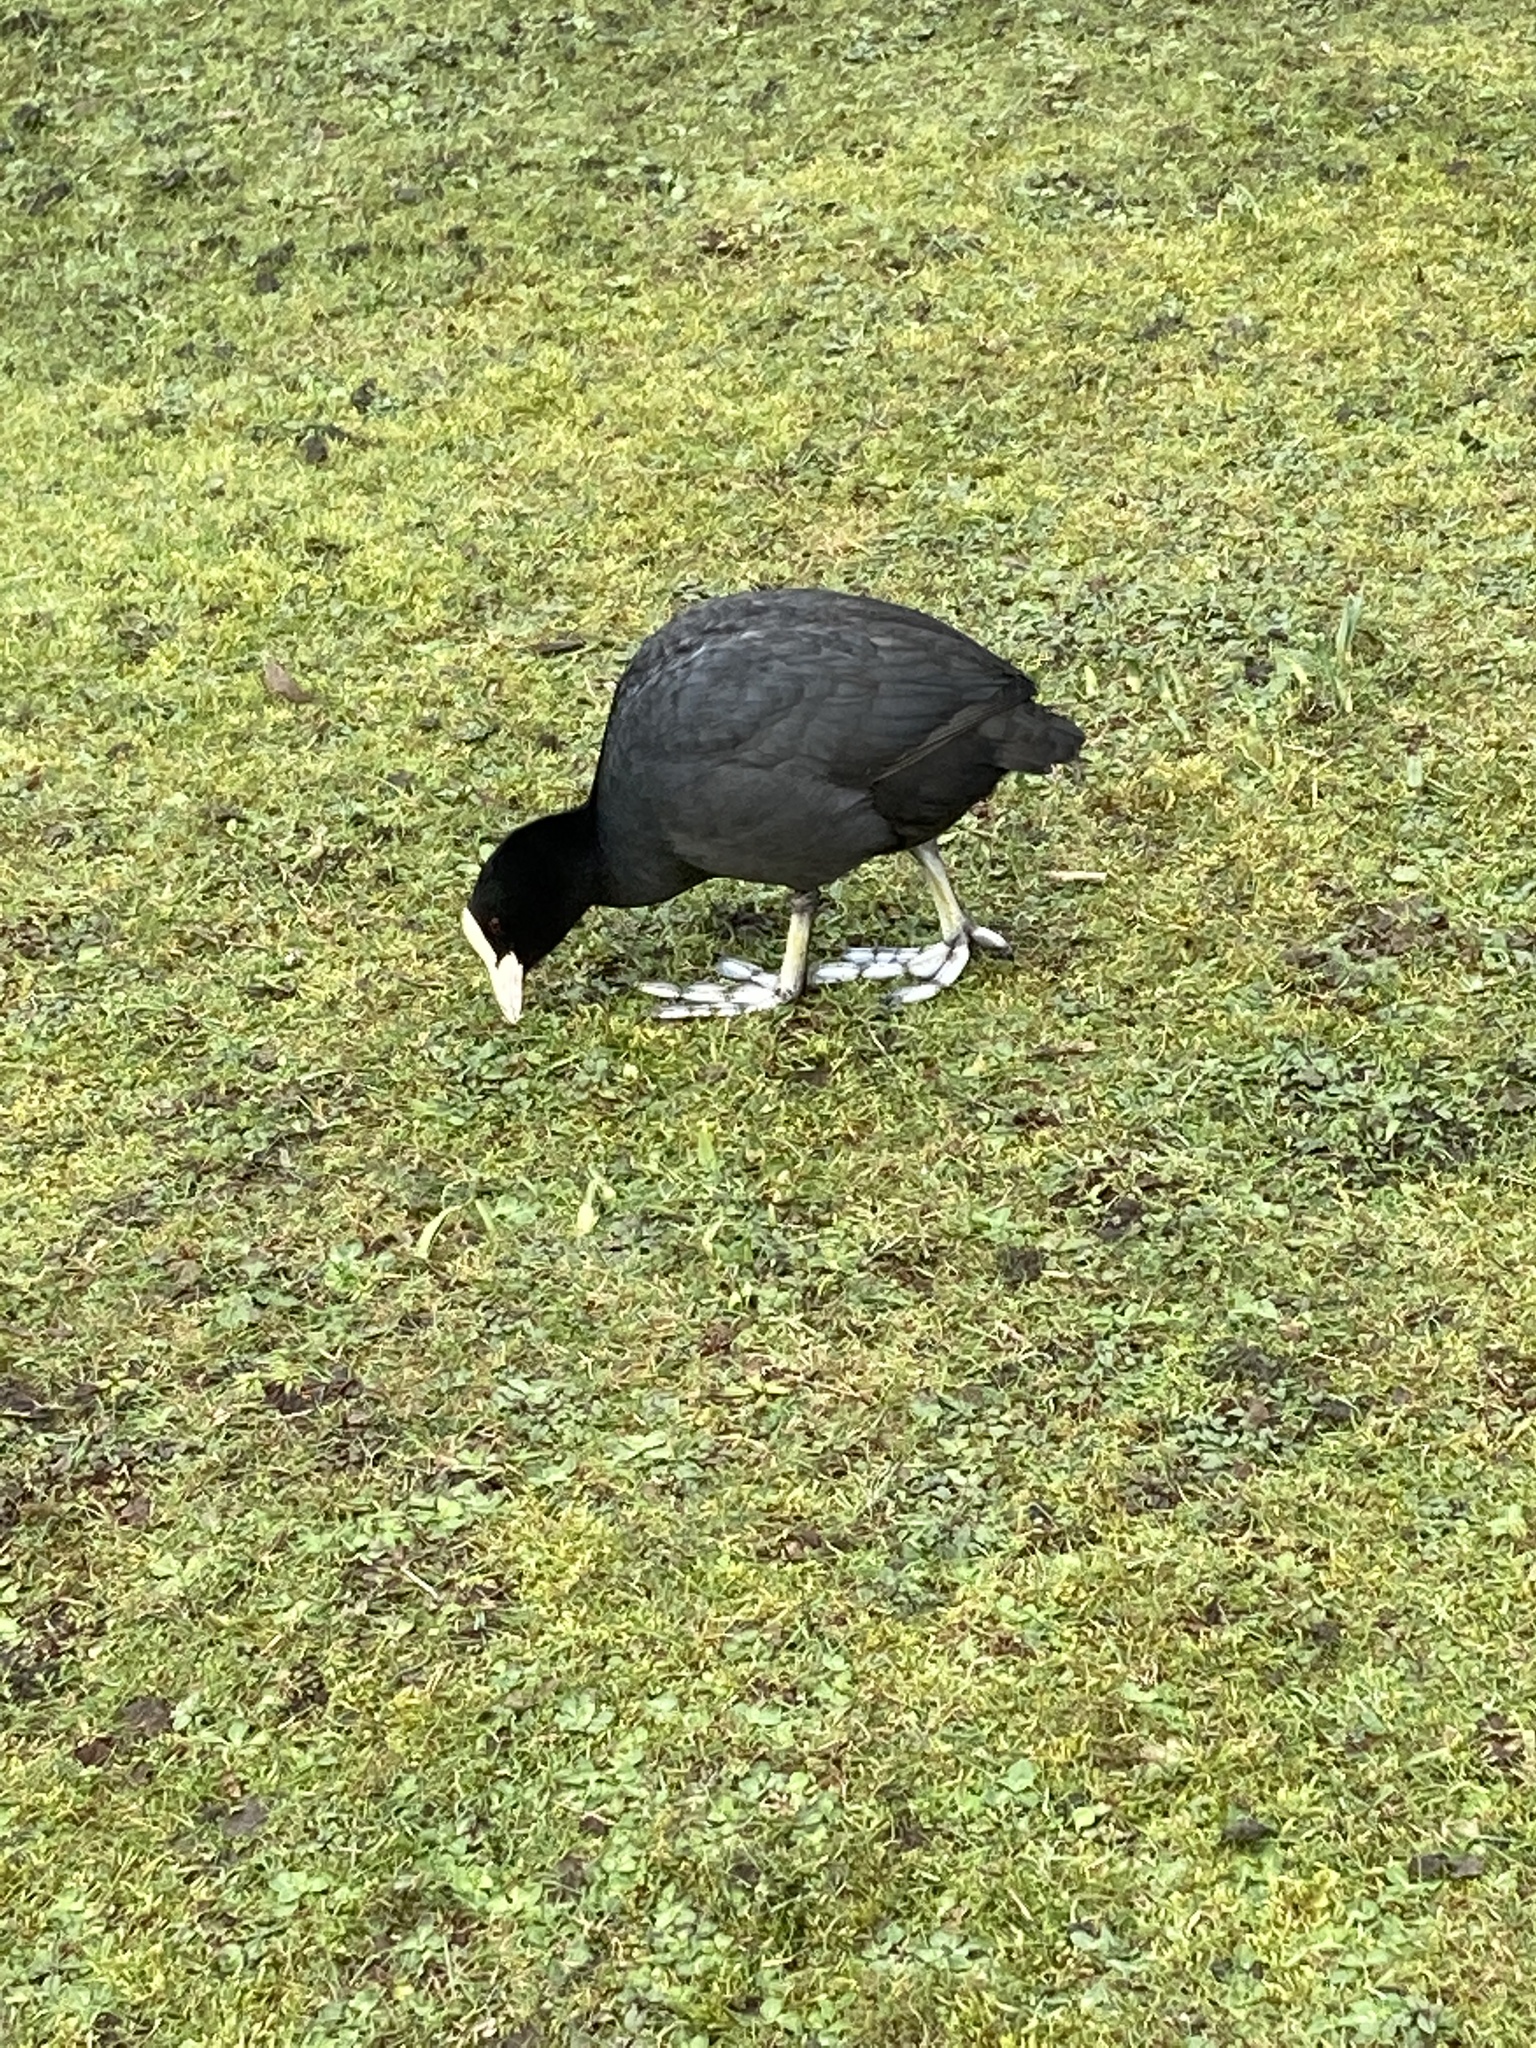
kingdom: Animalia
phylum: Chordata
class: Aves
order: Gruiformes
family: Rallidae
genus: Fulica
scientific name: Fulica atra
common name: Eurasian coot
